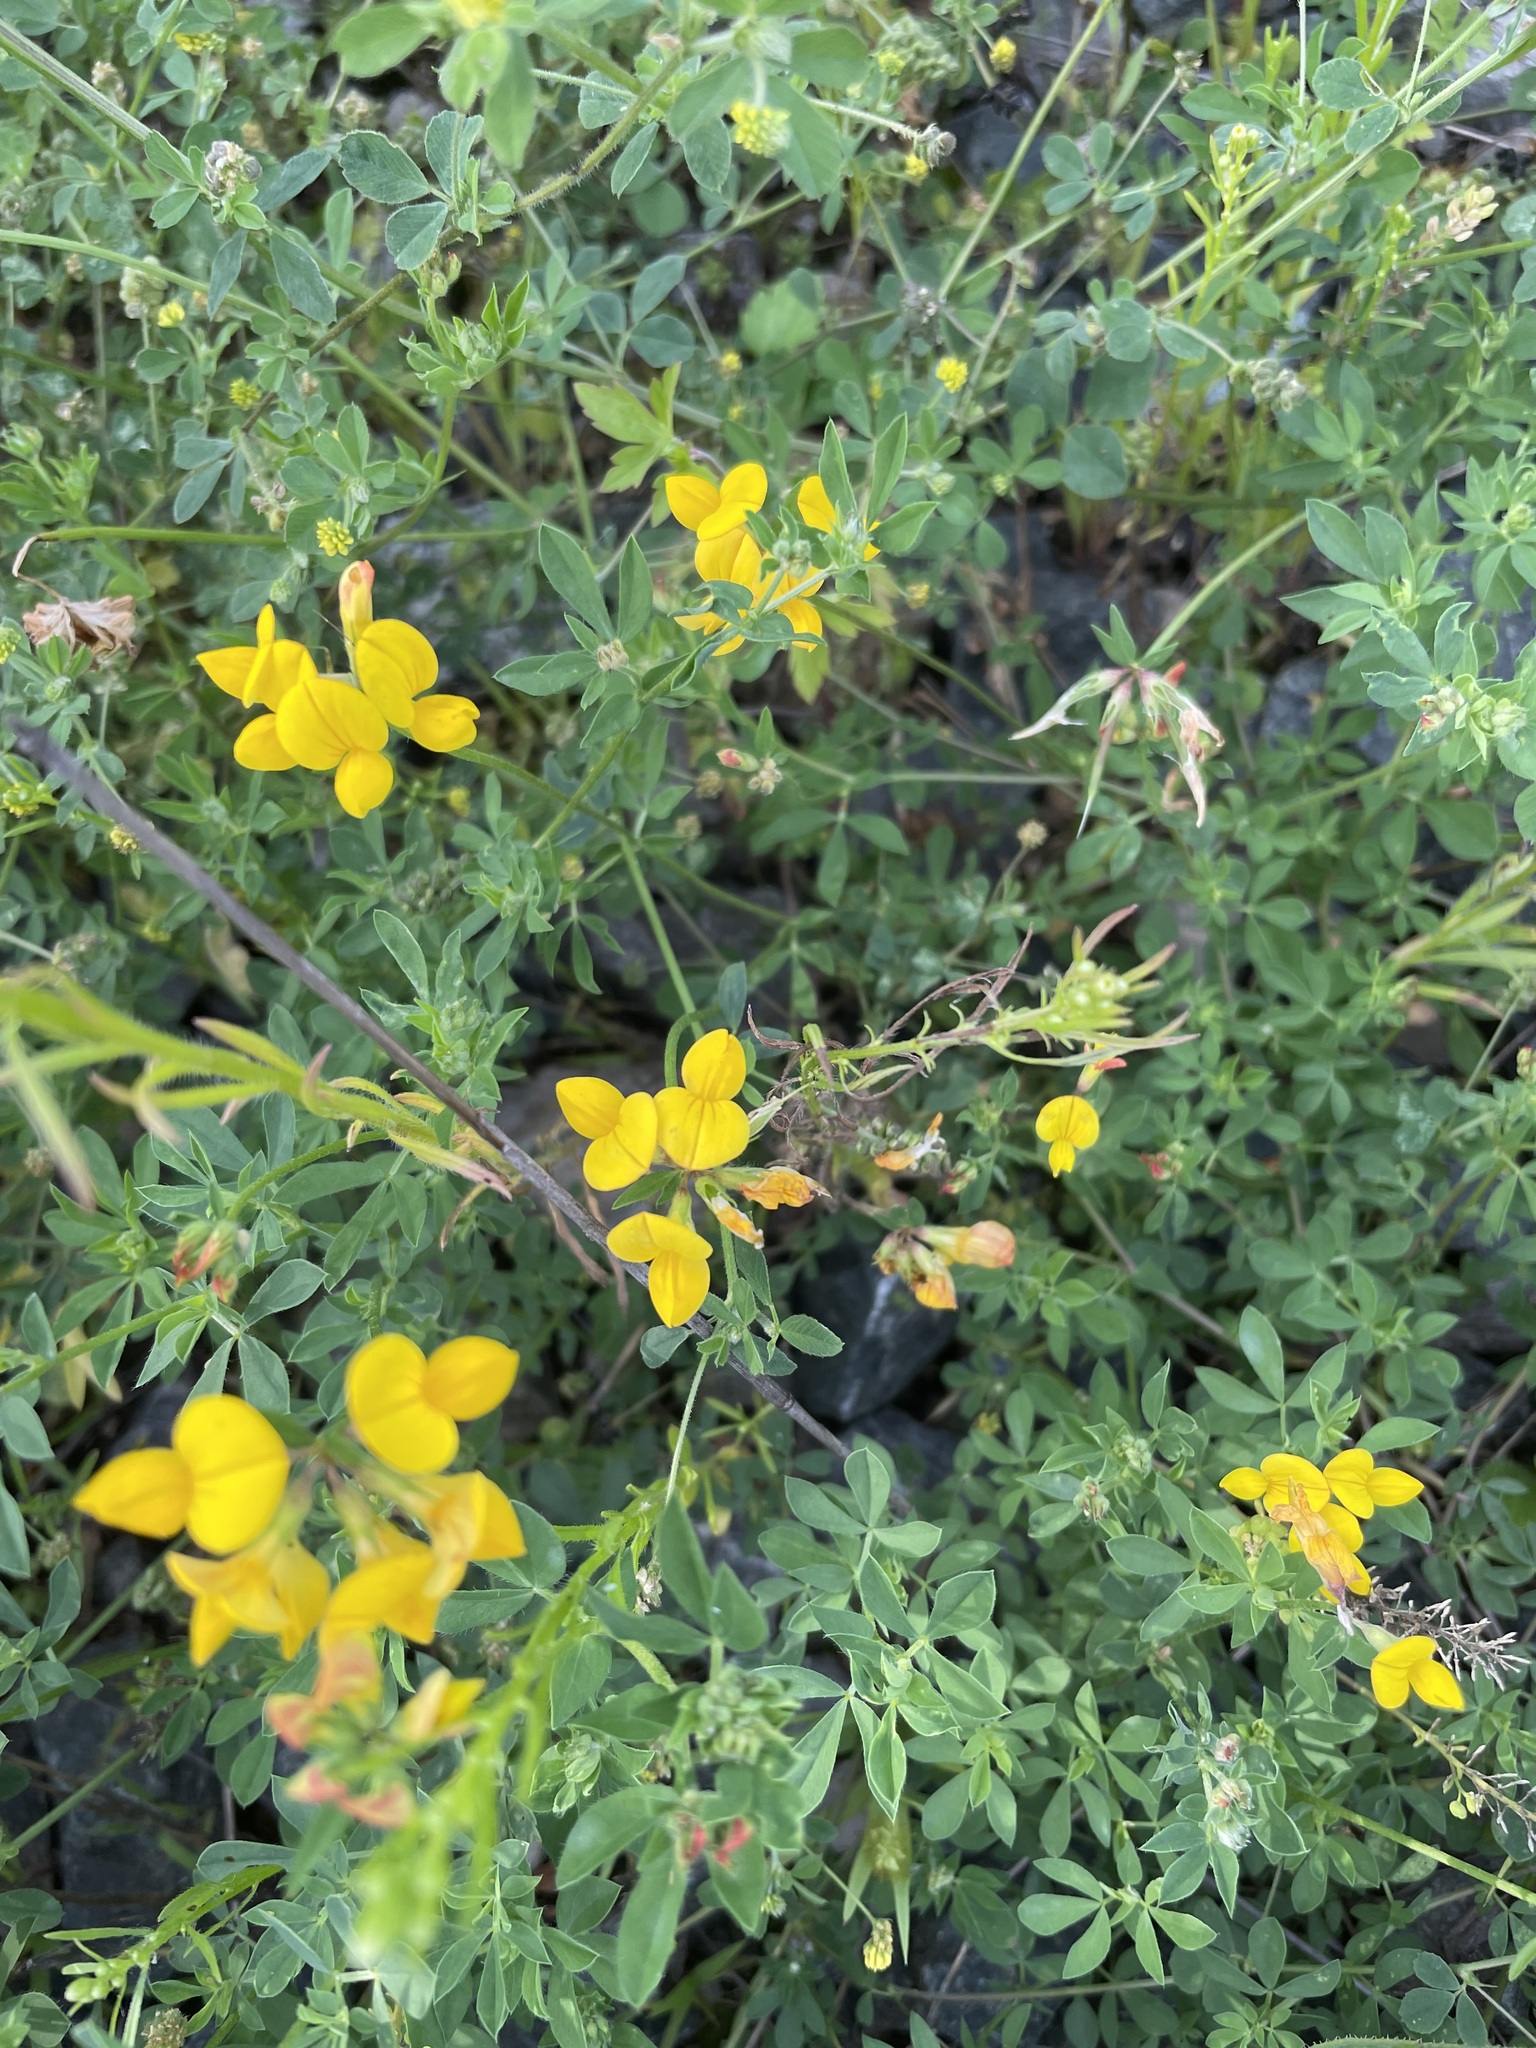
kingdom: Plantae
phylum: Tracheophyta
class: Magnoliopsida
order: Fabales
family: Fabaceae
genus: Lotus
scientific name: Lotus corniculatus
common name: Common bird's-foot-trefoil
